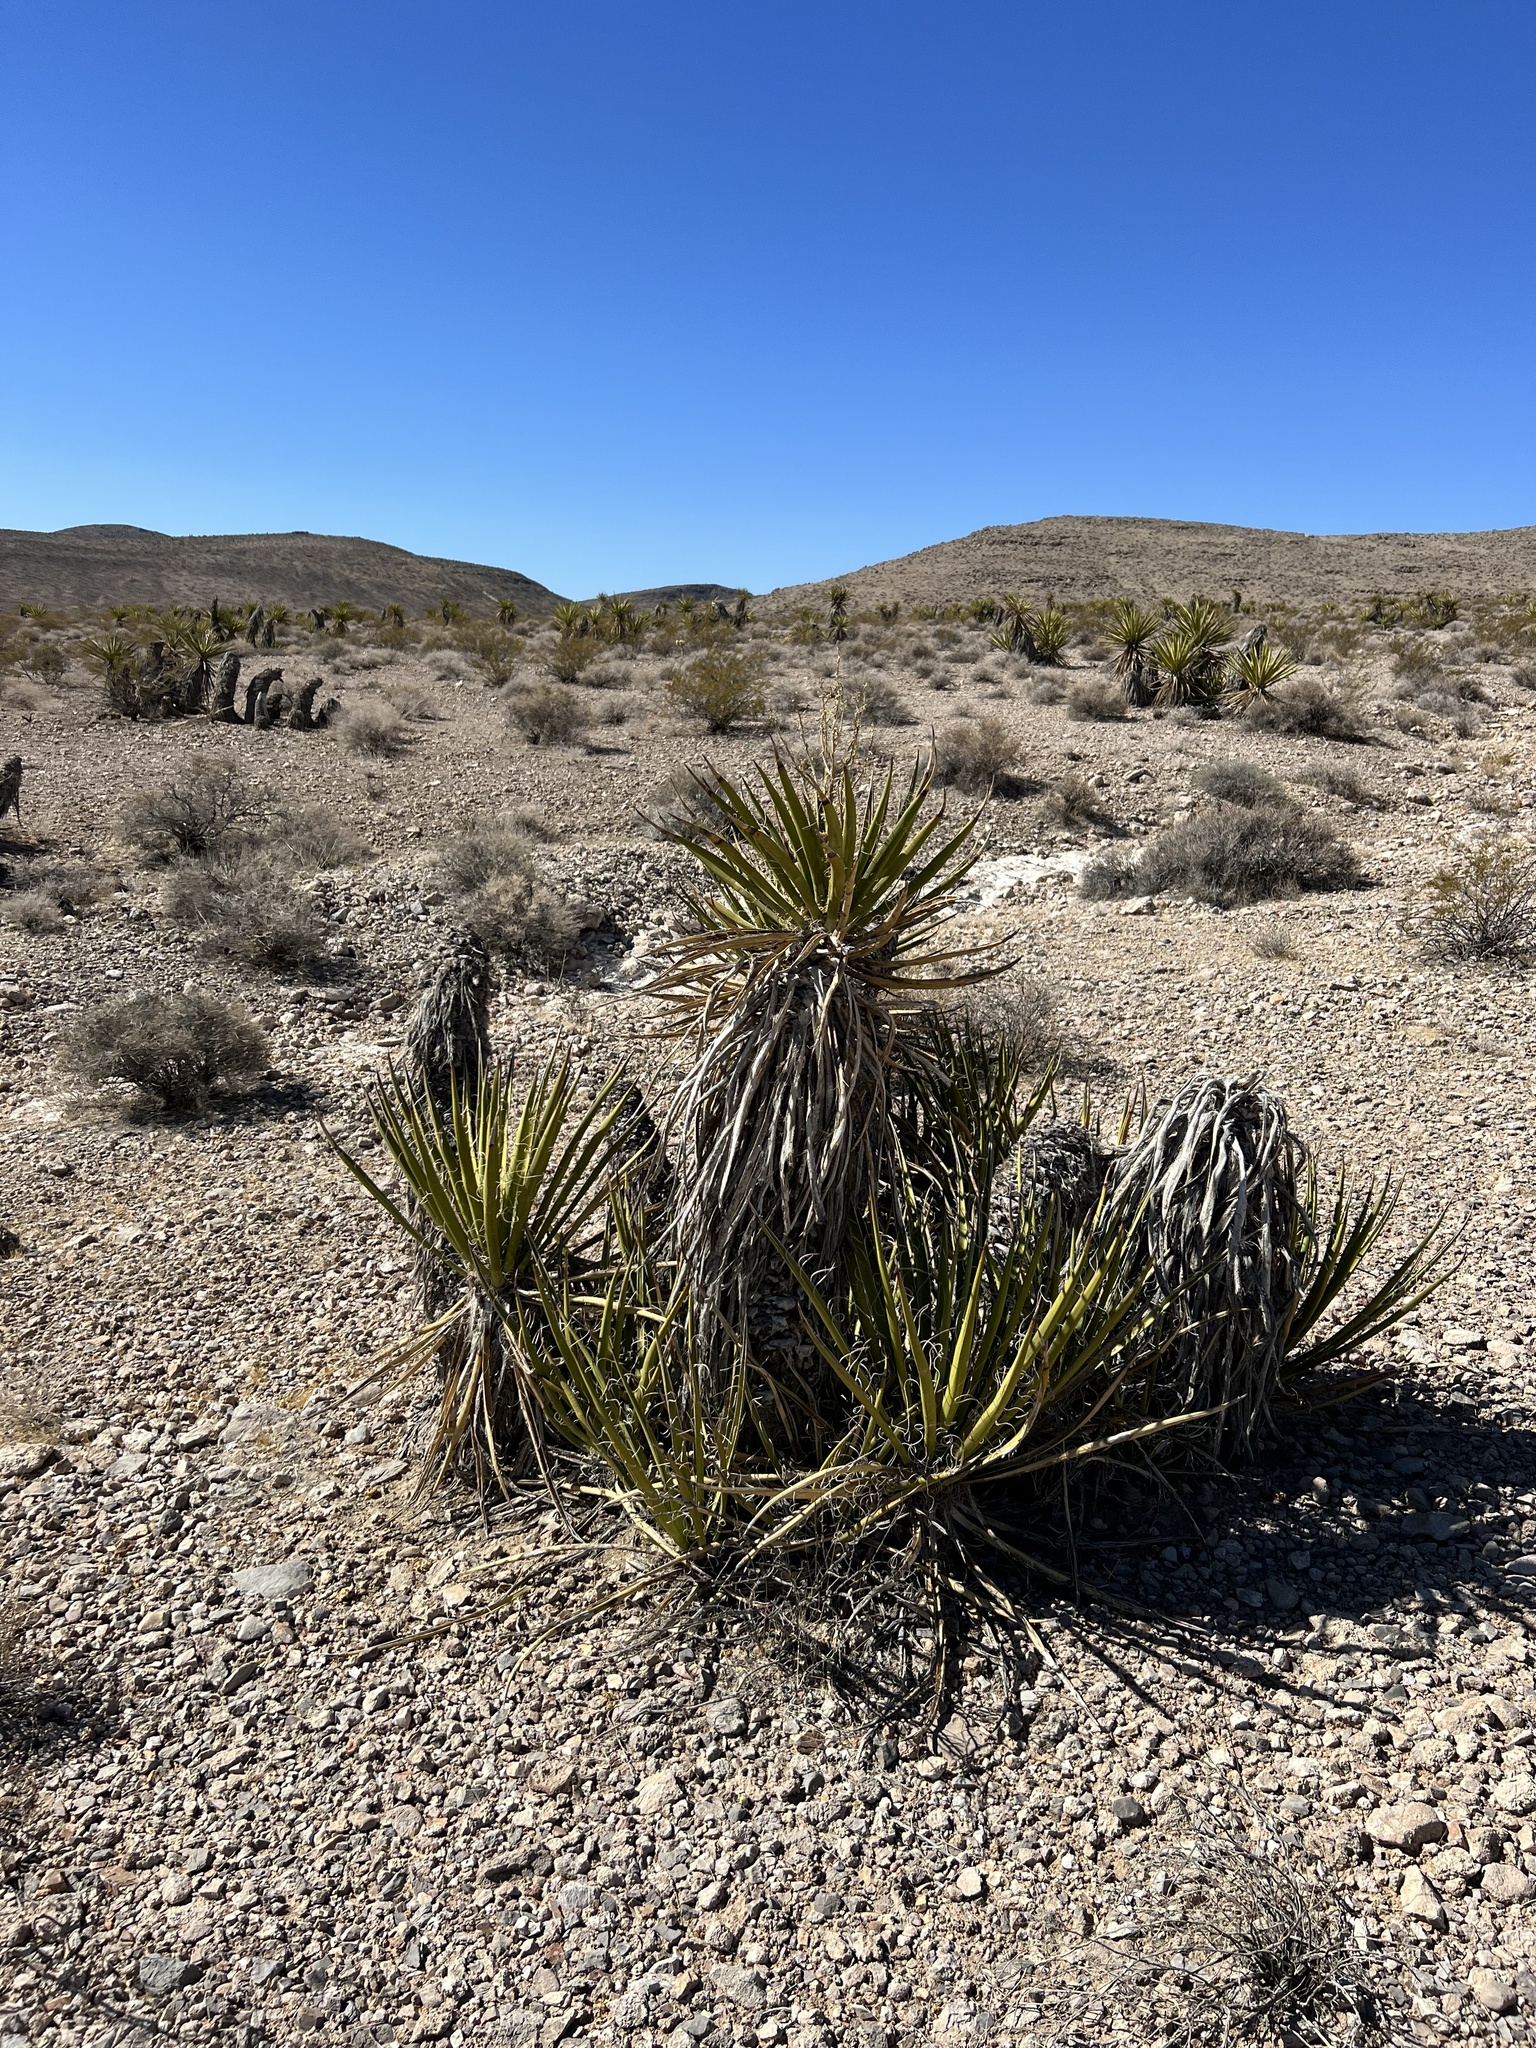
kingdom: Plantae
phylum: Tracheophyta
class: Liliopsida
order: Asparagales
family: Asparagaceae
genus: Yucca
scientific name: Yucca schidigera
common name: Mojave yucca
